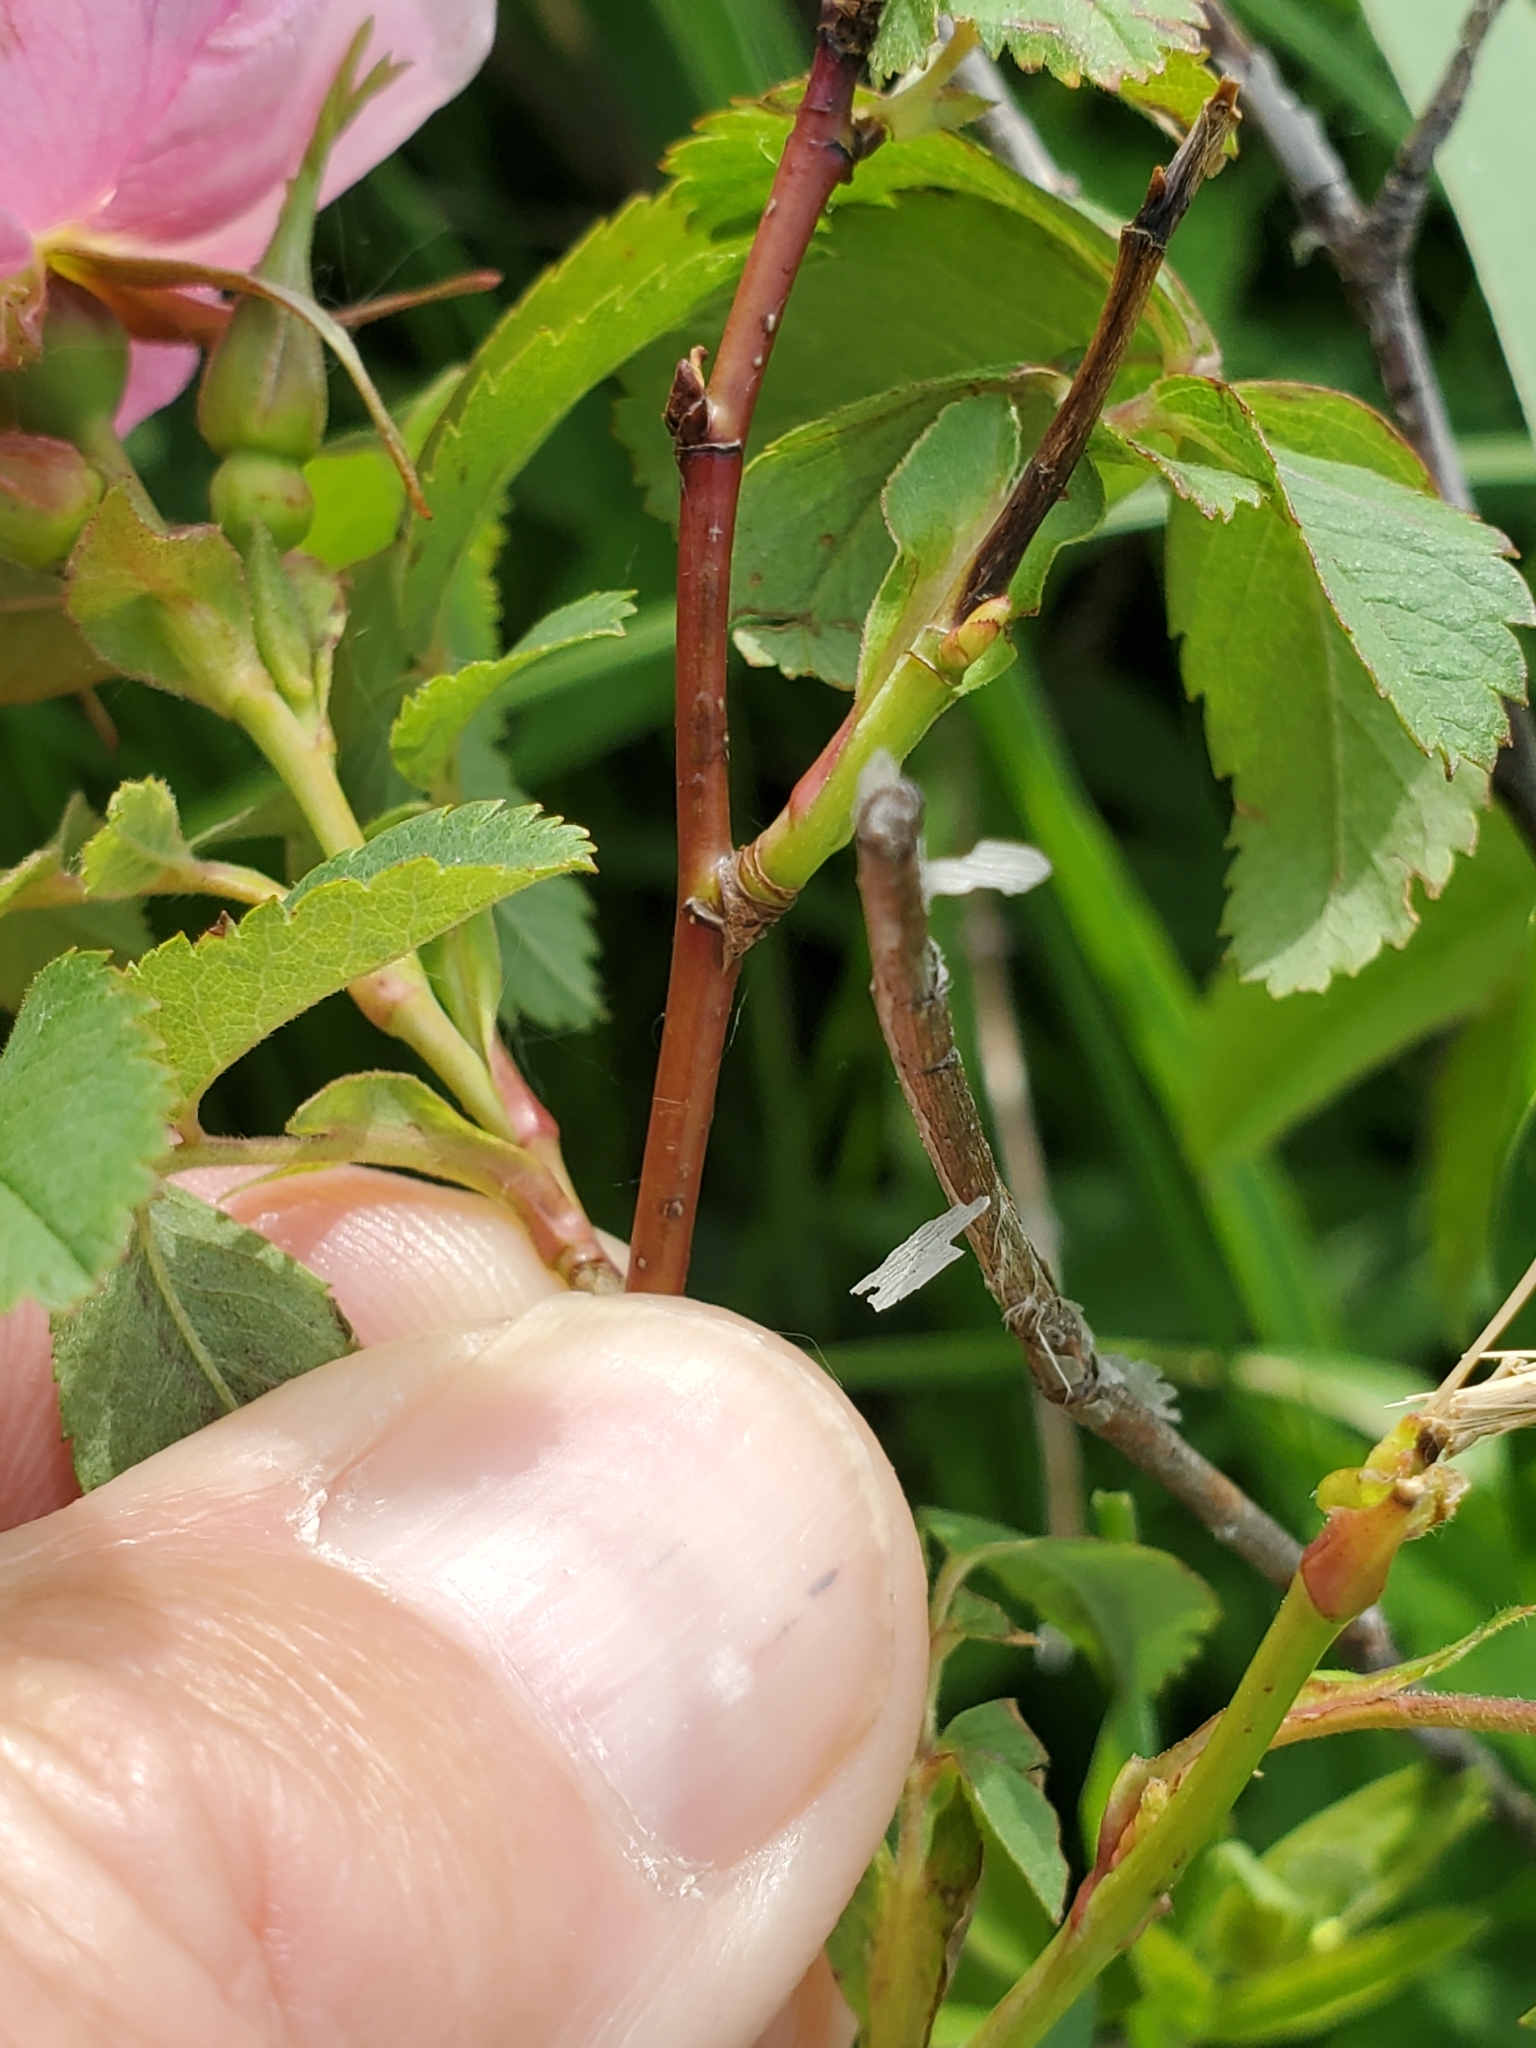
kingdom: Plantae
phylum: Tracheophyta
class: Magnoliopsida
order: Rosales
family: Rosaceae
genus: Rosa
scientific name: Rosa arkansana
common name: Prairie rose
